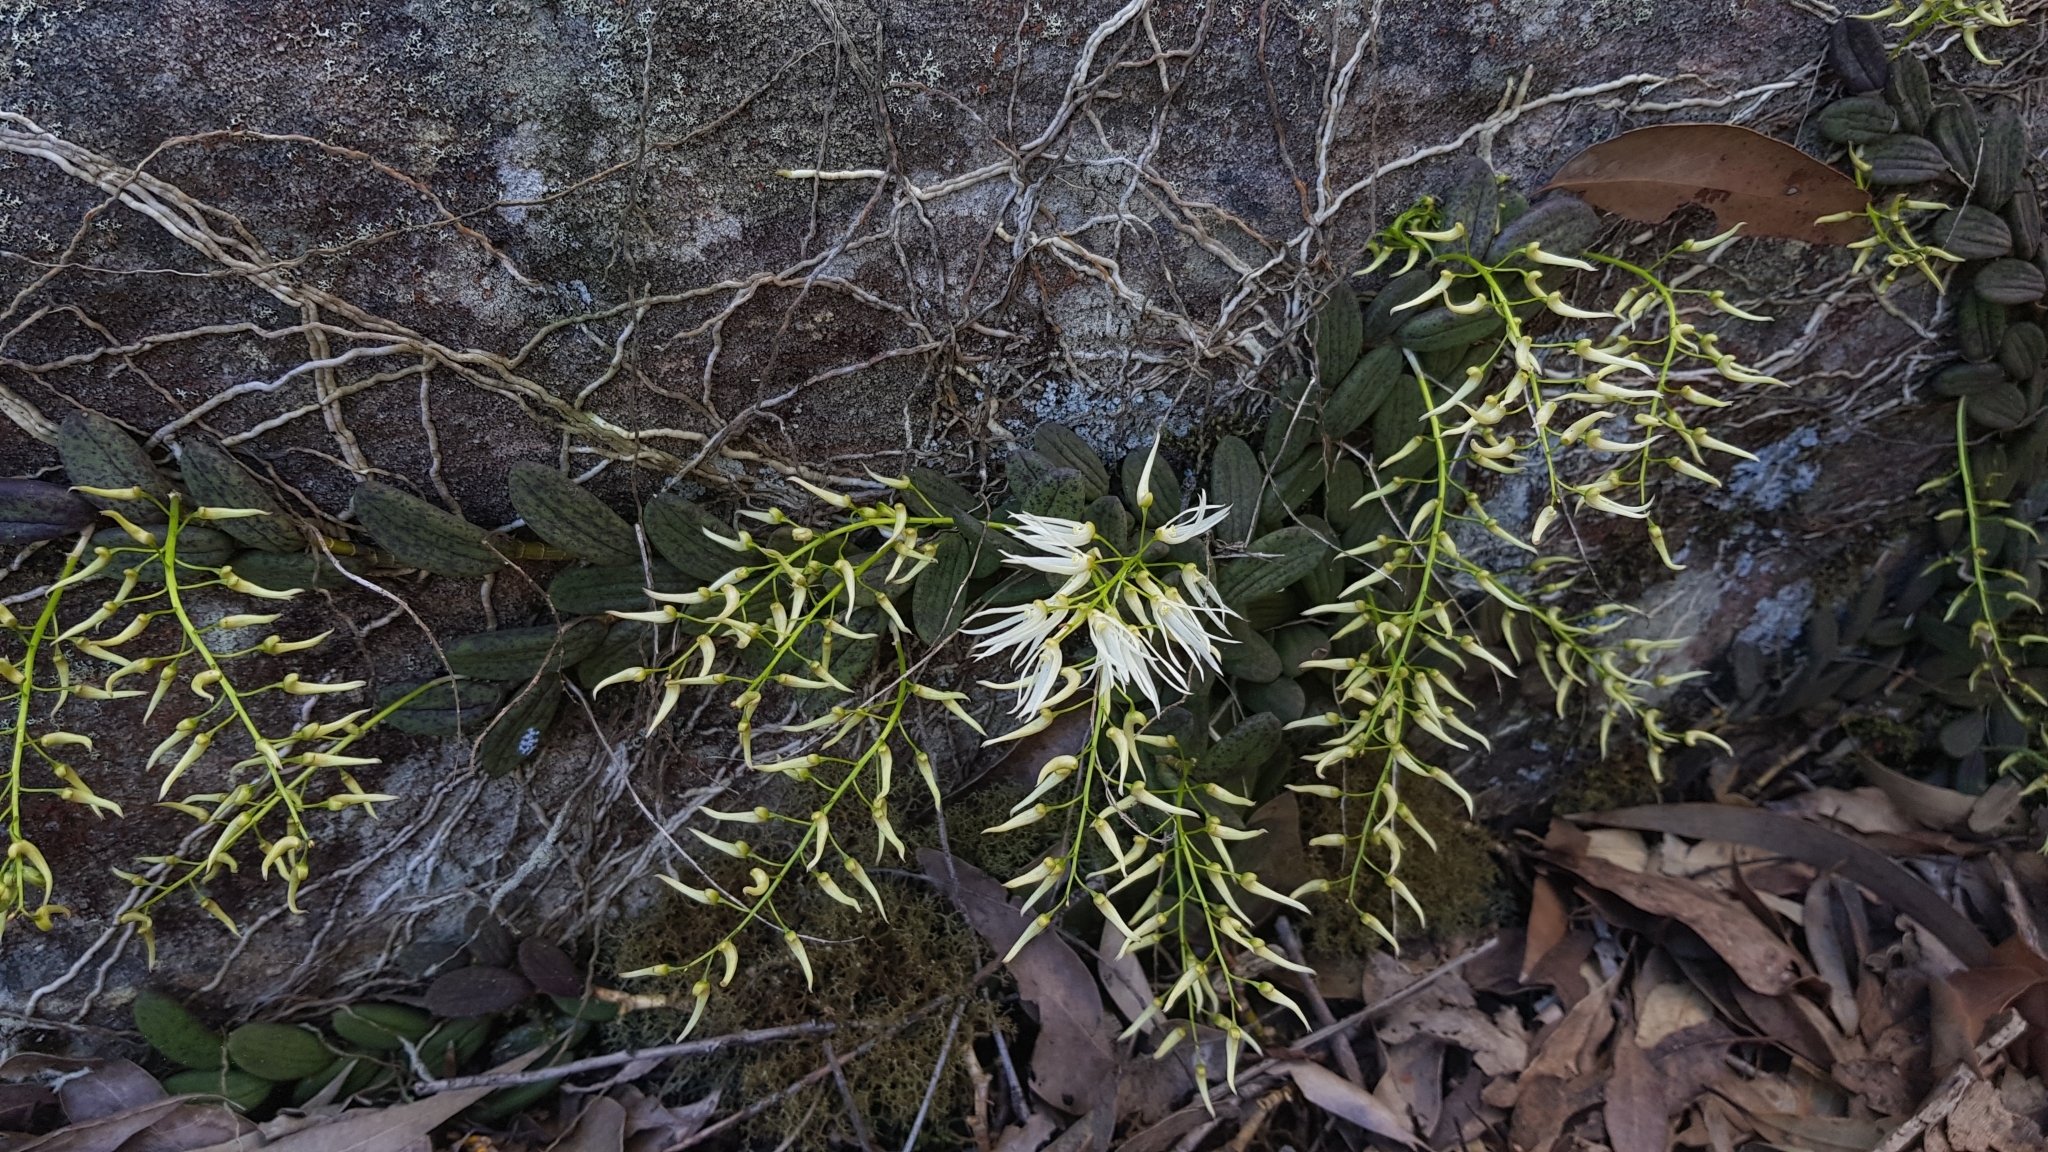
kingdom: Plantae
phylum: Tracheophyta
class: Liliopsida
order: Asparagales
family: Orchidaceae
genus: Dendrobium
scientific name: Dendrobium linguiforme
